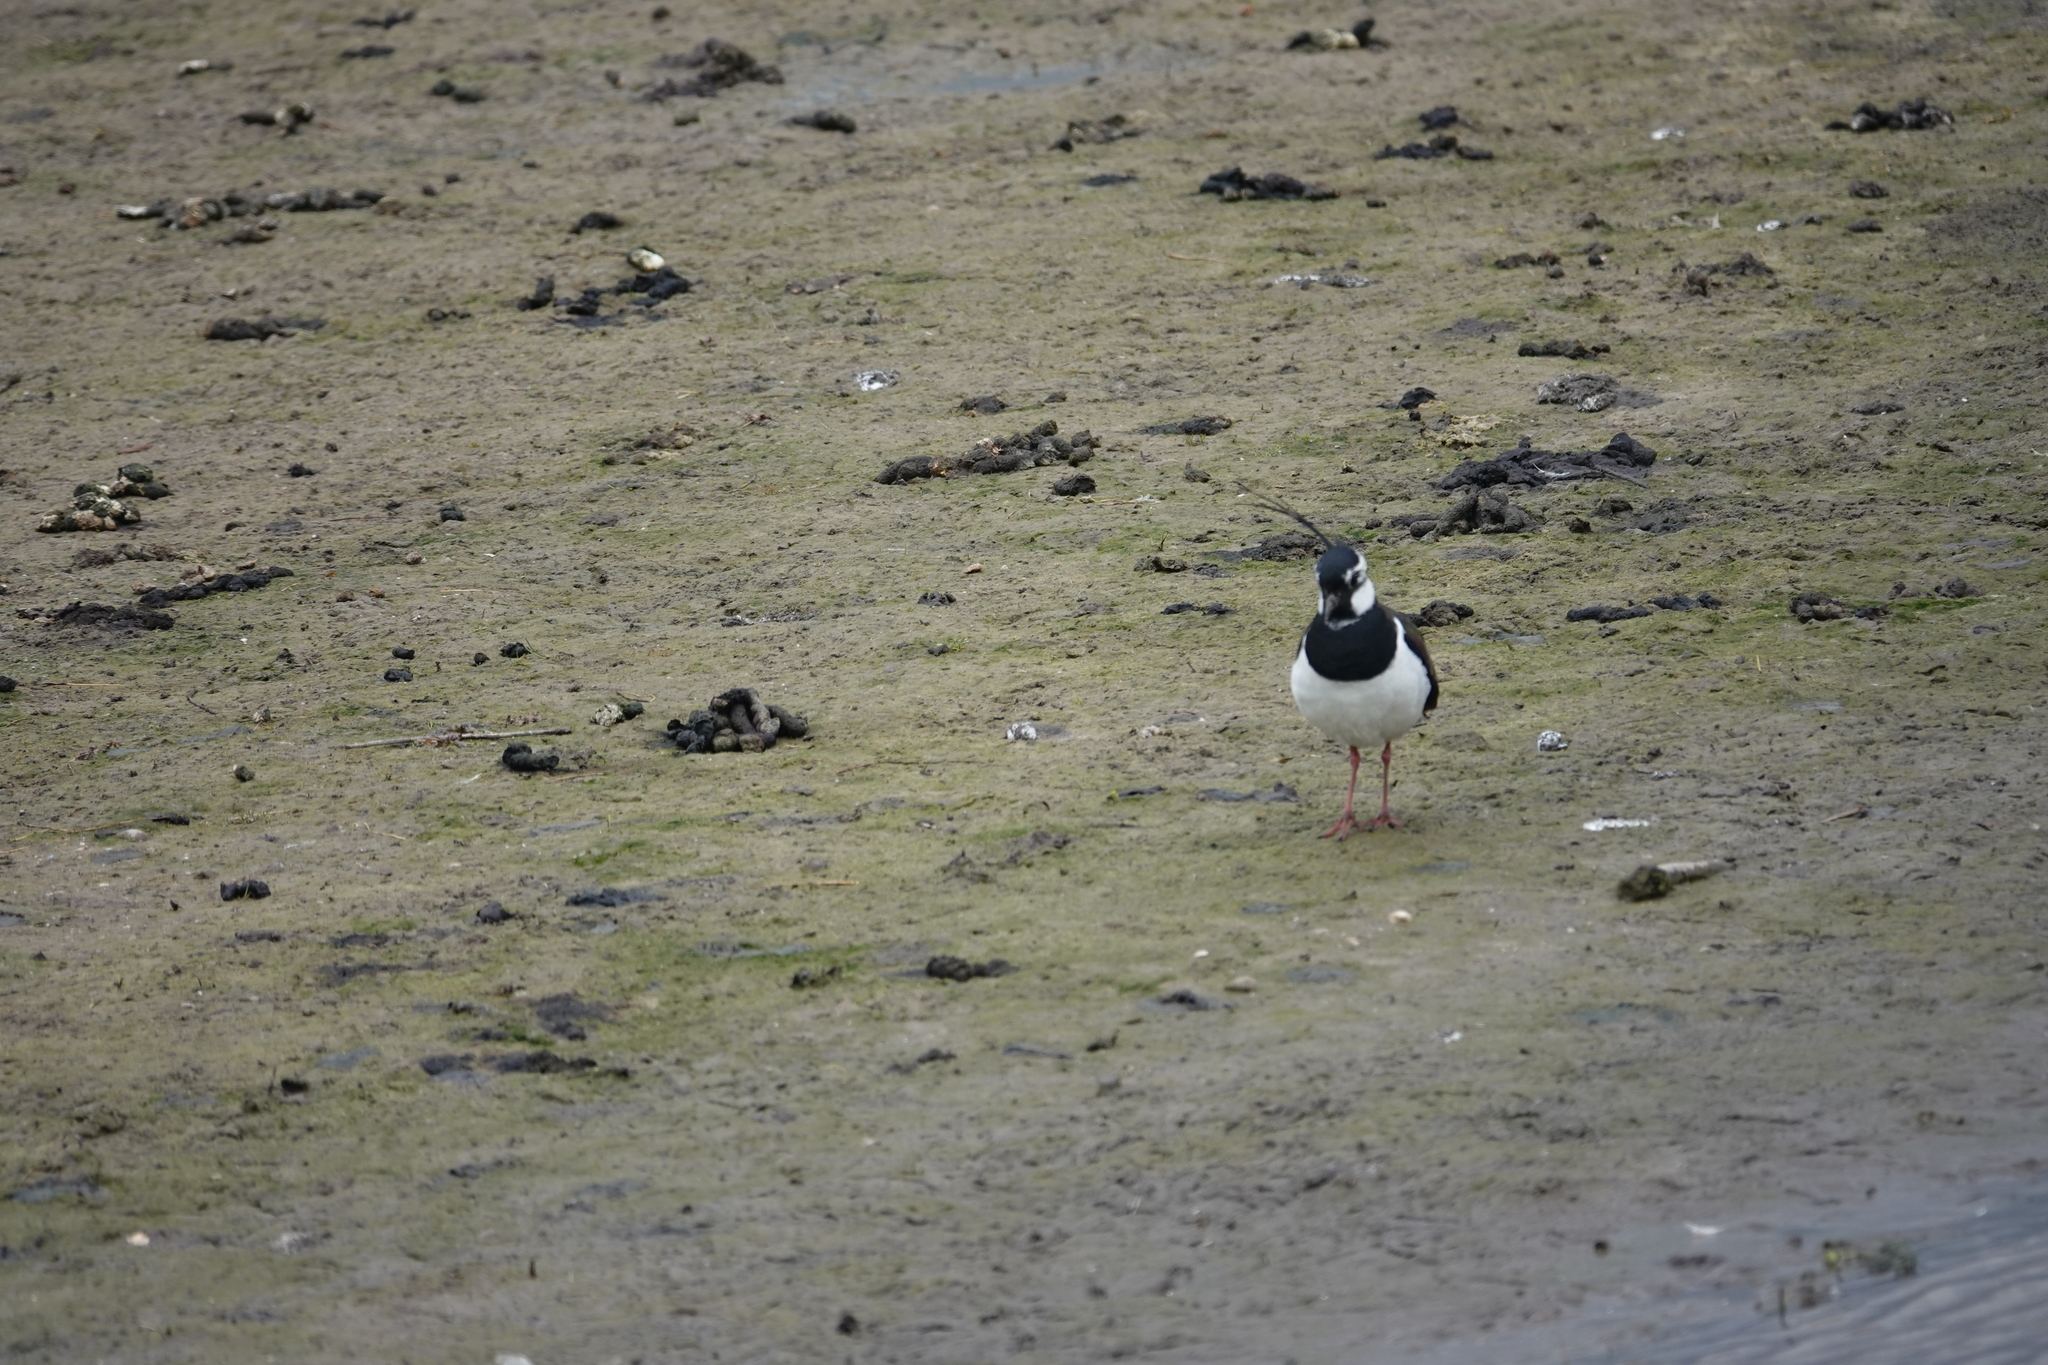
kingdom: Animalia
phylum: Chordata
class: Aves
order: Charadriiformes
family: Charadriidae
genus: Vanellus
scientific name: Vanellus vanellus
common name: Northern lapwing
